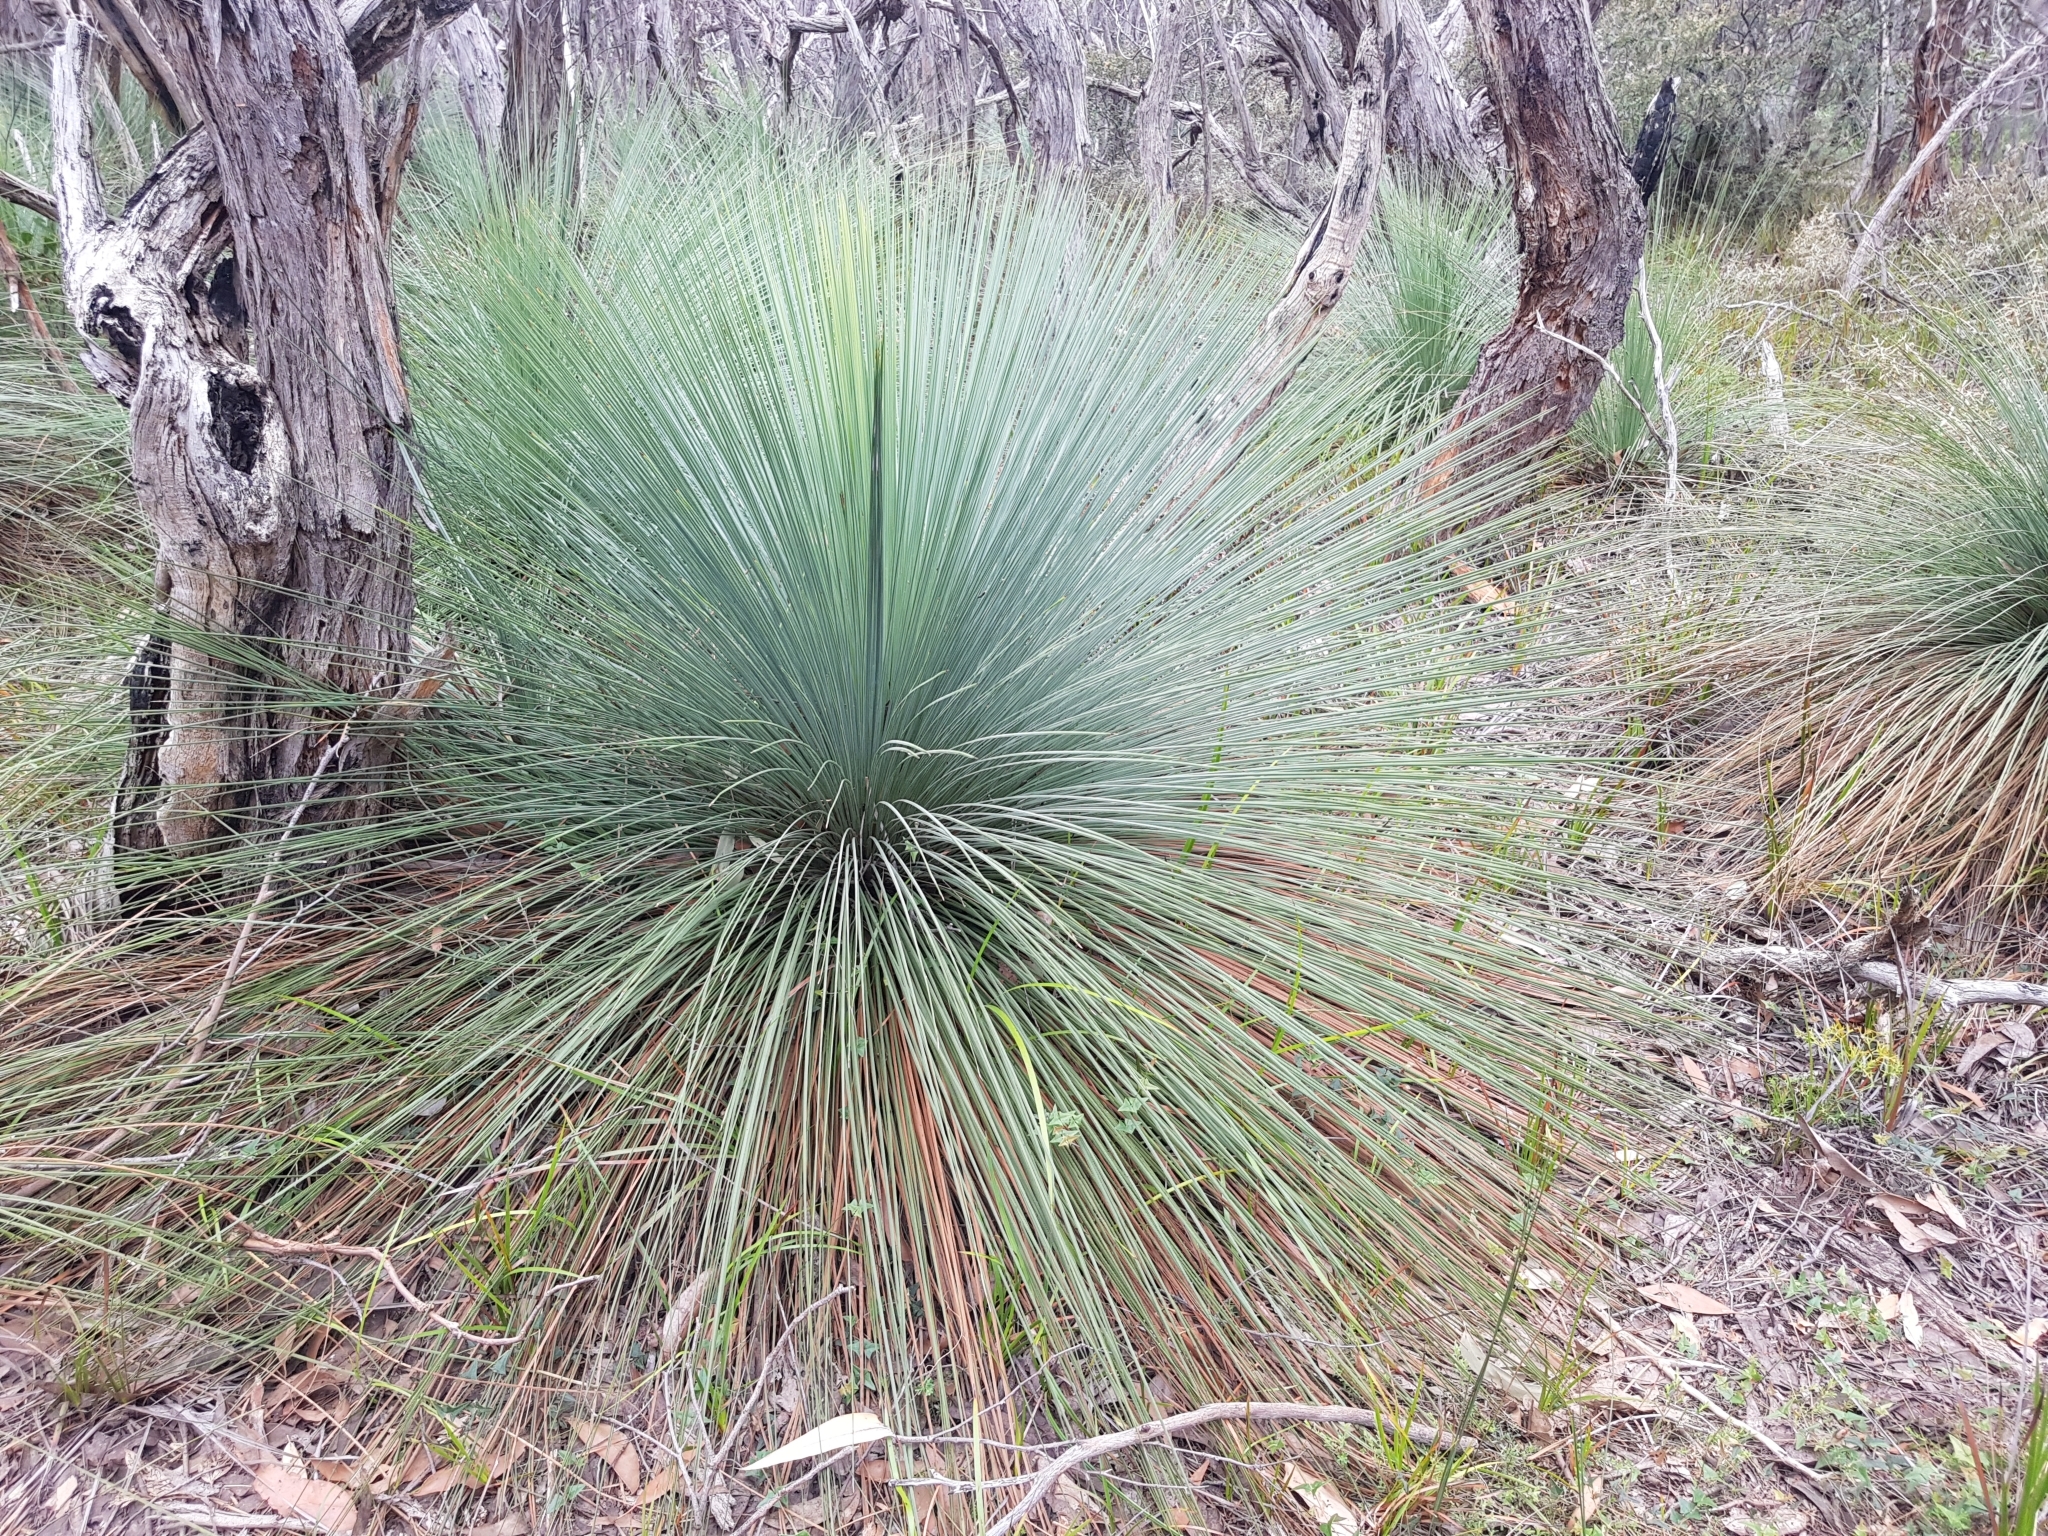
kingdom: Plantae
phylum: Tracheophyta
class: Liliopsida
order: Asparagales
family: Asphodelaceae
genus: Xanthorrhoea
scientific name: Xanthorrhoea australis
